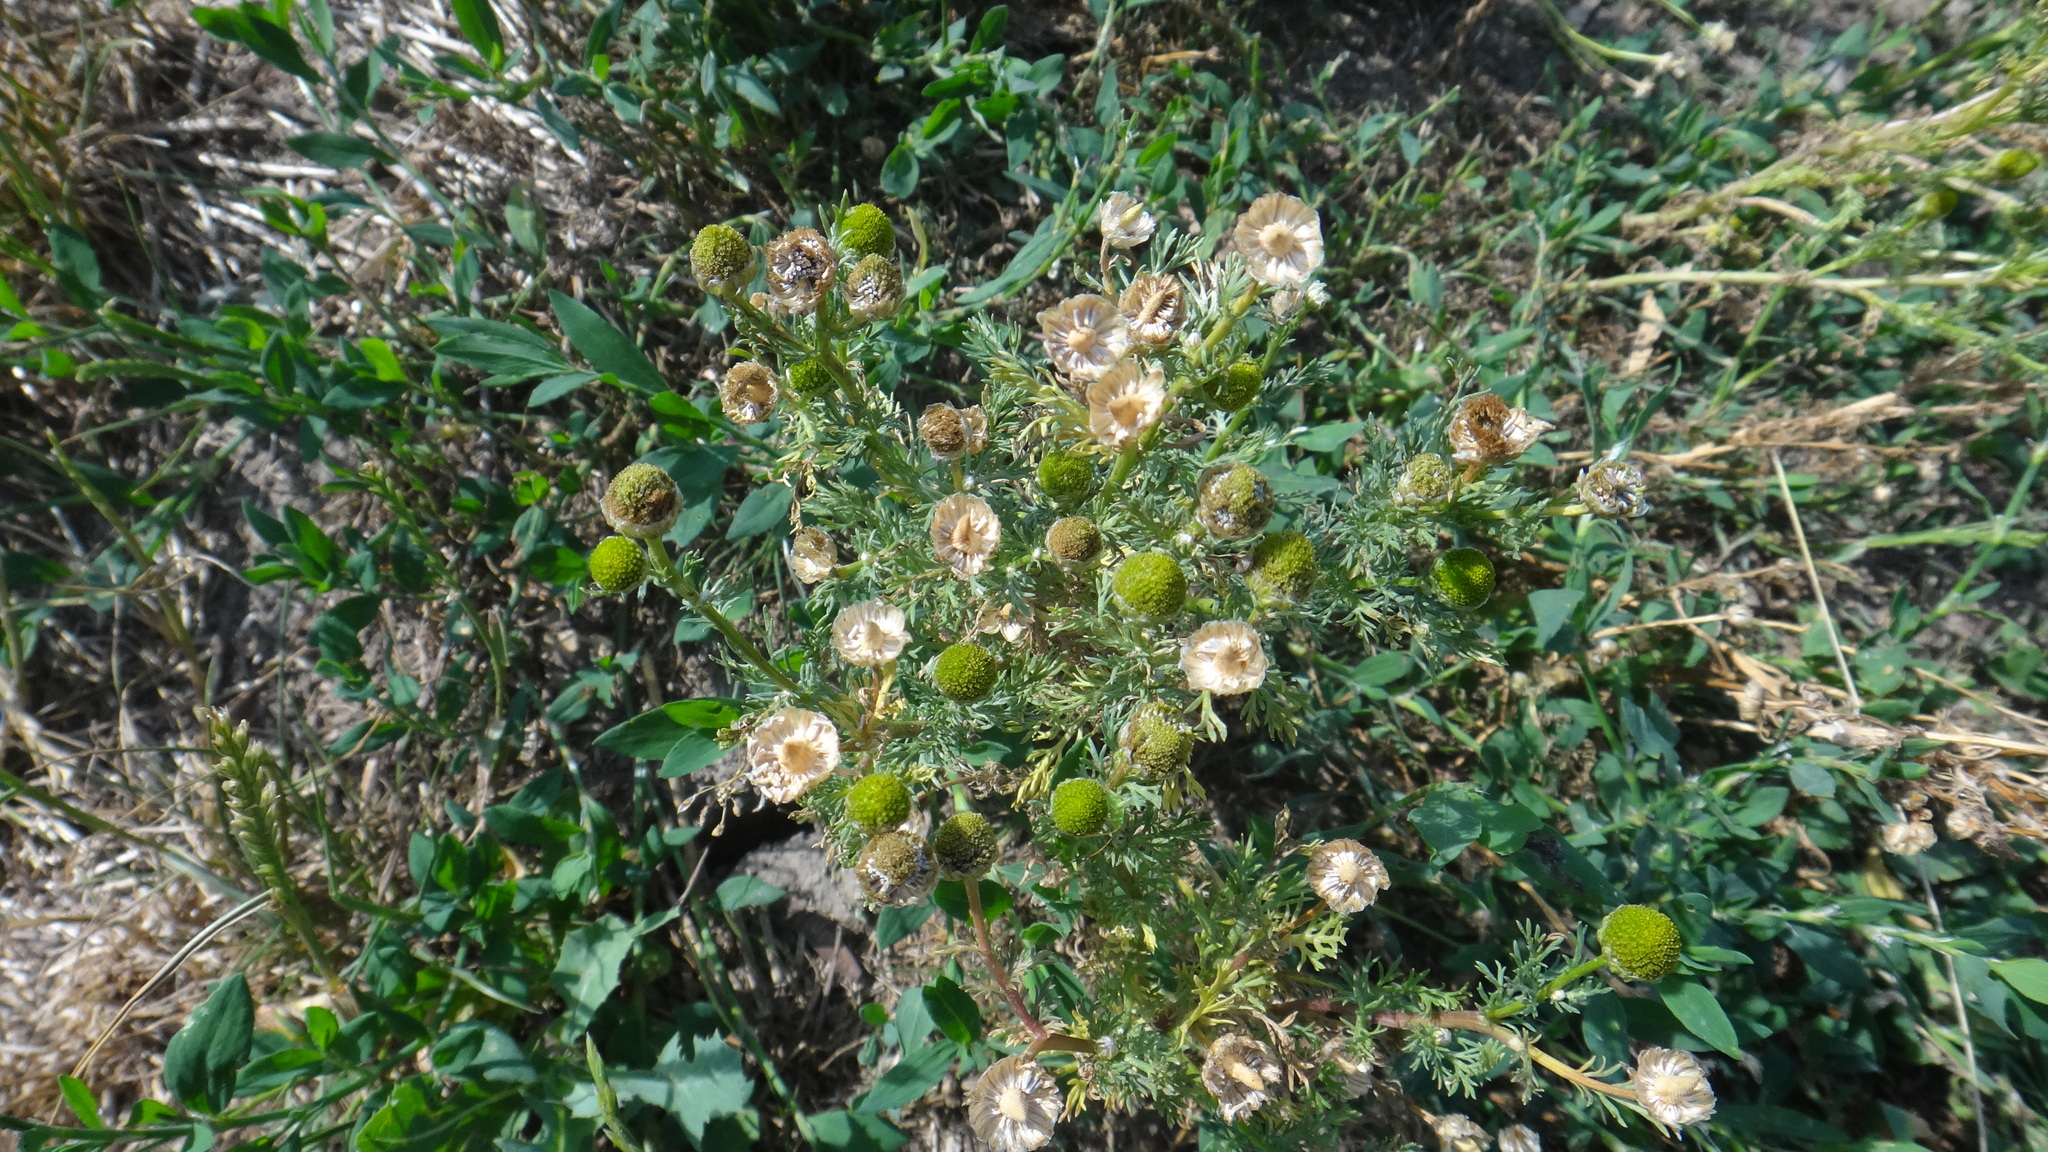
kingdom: Plantae
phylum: Tracheophyta
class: Magnoliopsida
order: Asterales
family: Asteraceae
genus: Matricaria
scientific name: Matricaria discoidea
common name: Disc mayweed
